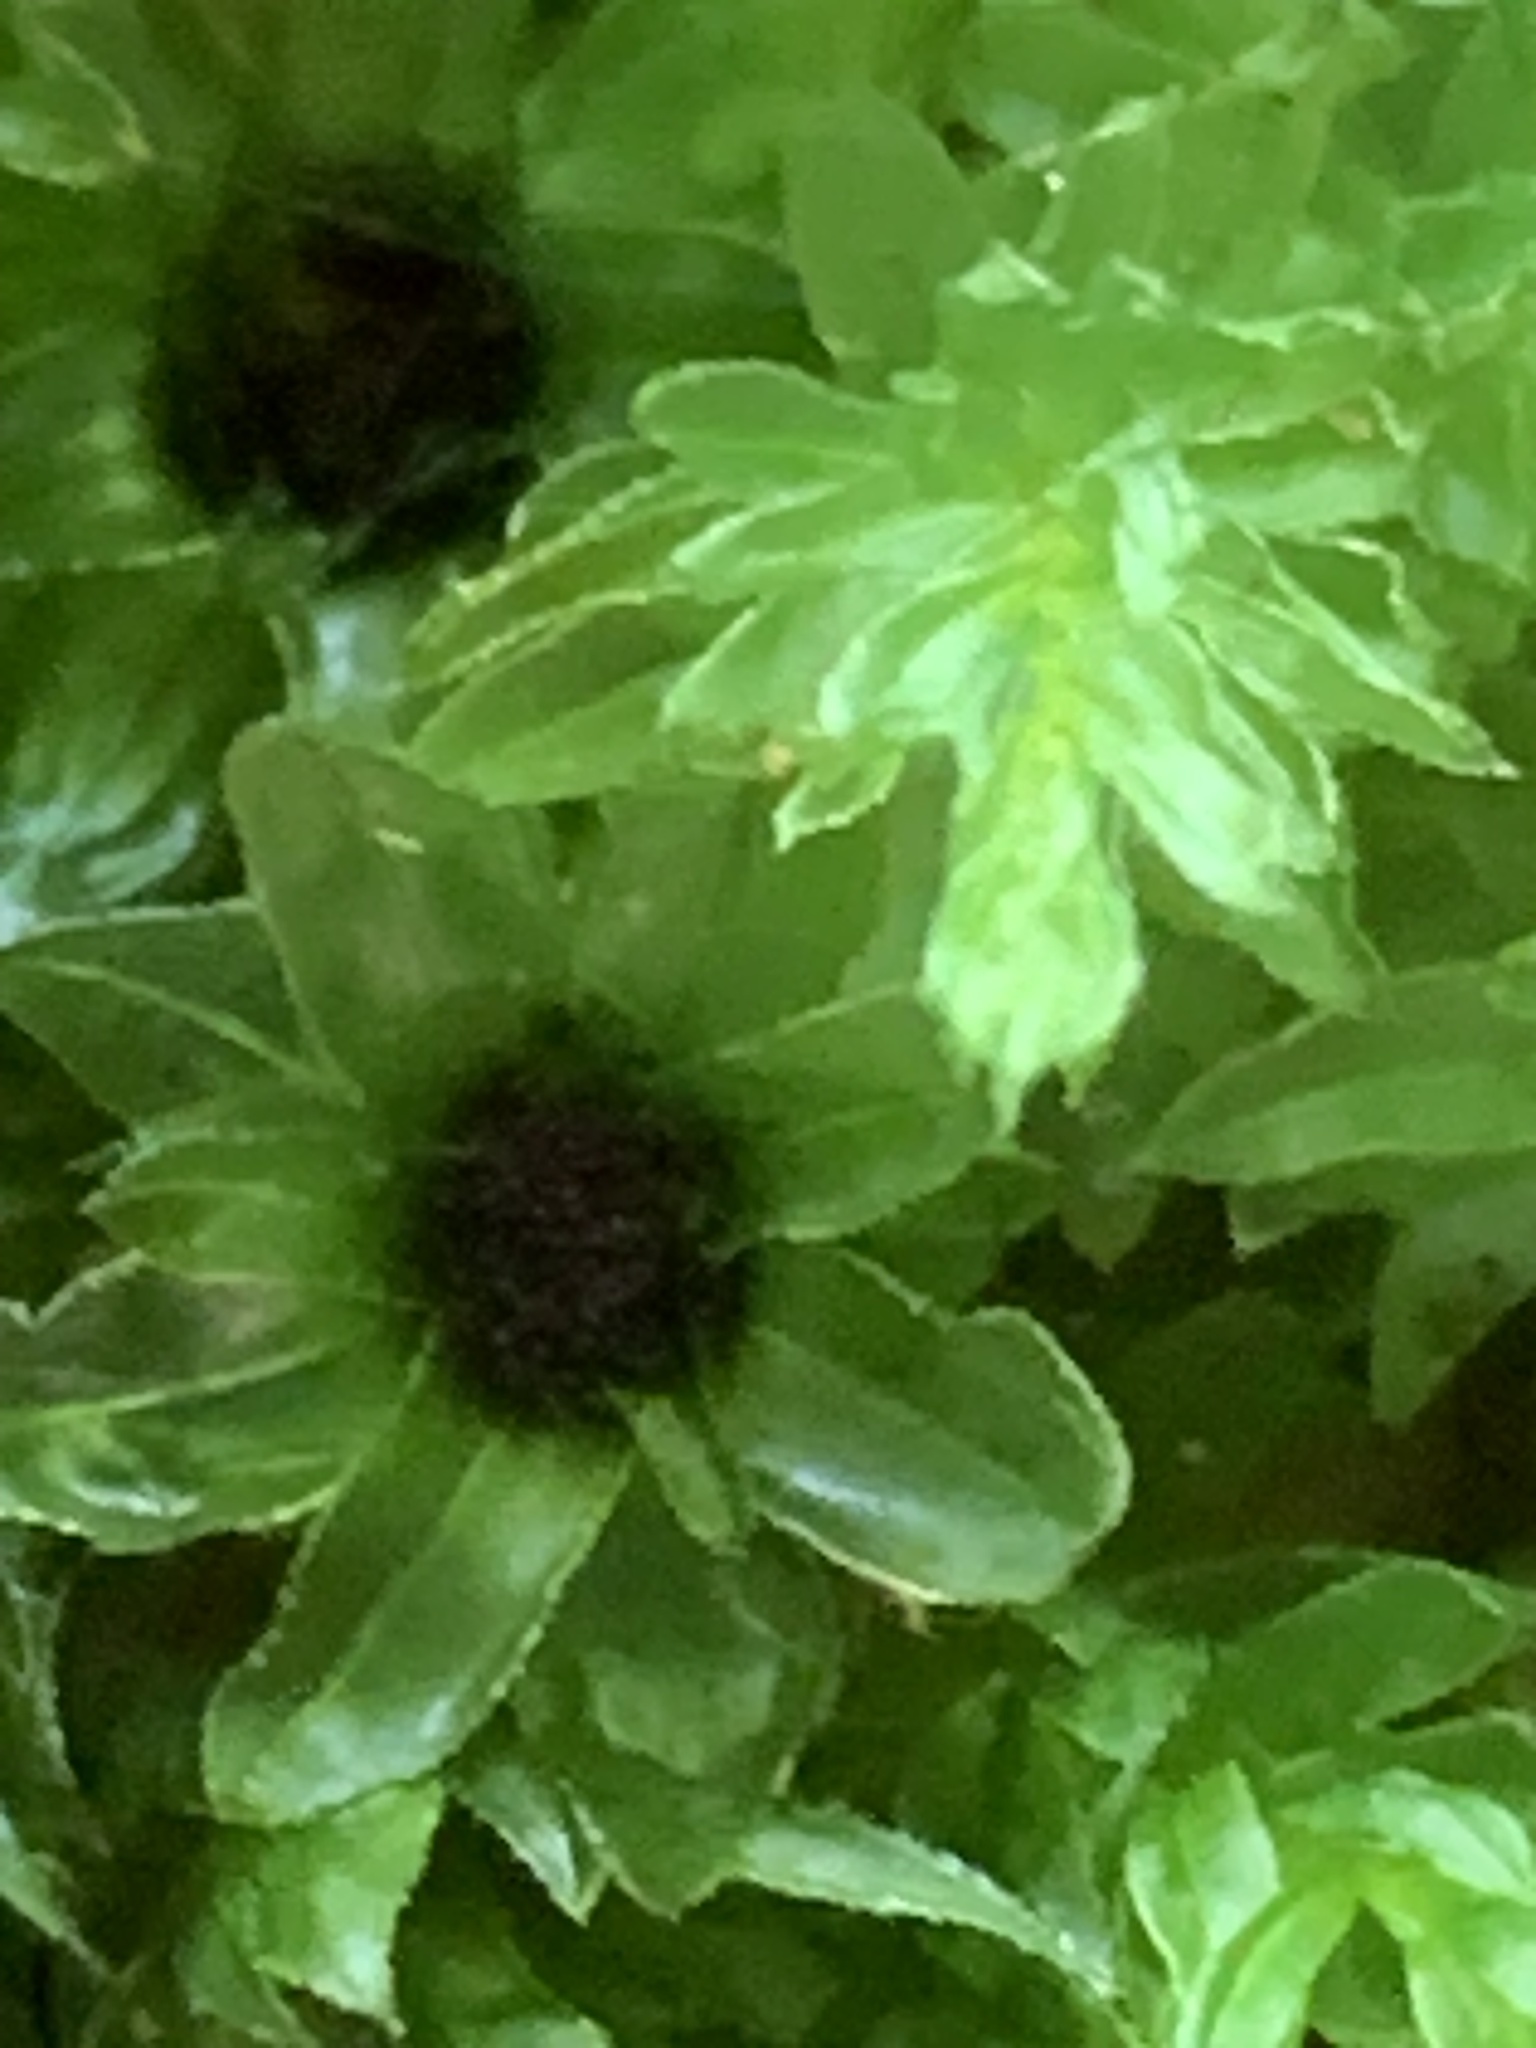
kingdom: Plantae
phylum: Bryophyta
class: Bryopsida
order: Bryales
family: Mniaceae
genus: Mnium
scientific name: Mnium hornum
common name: Swan's-neck leafy moss
